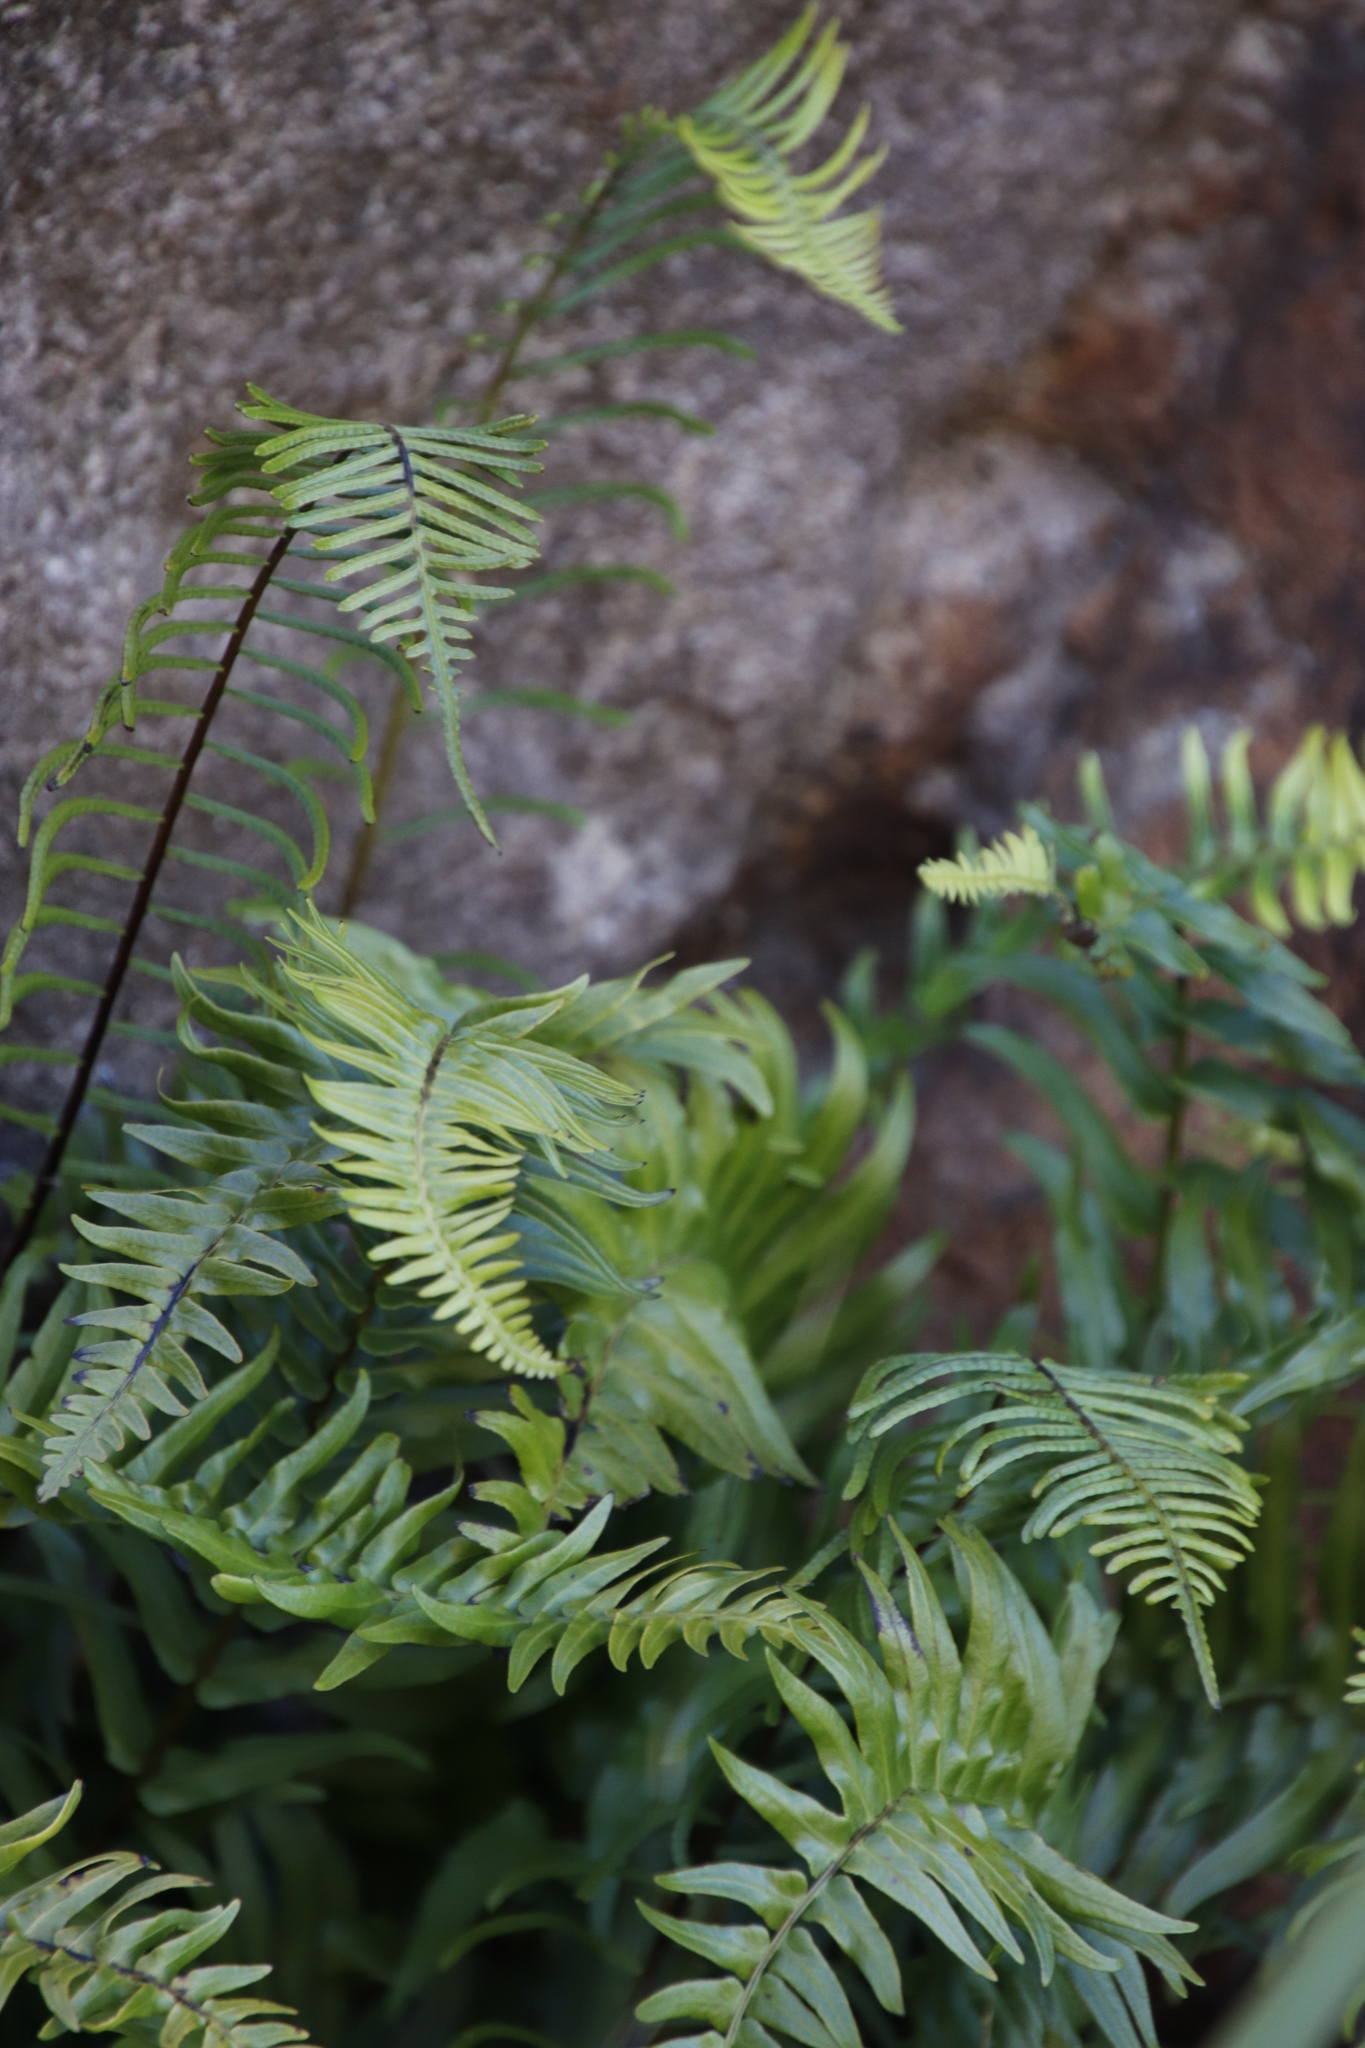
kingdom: Plantae
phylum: Tracheophyta
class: Polypodiopsida
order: Polypodiales
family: Blechnaceae
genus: Blechnum
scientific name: Blechnum punctulatum
